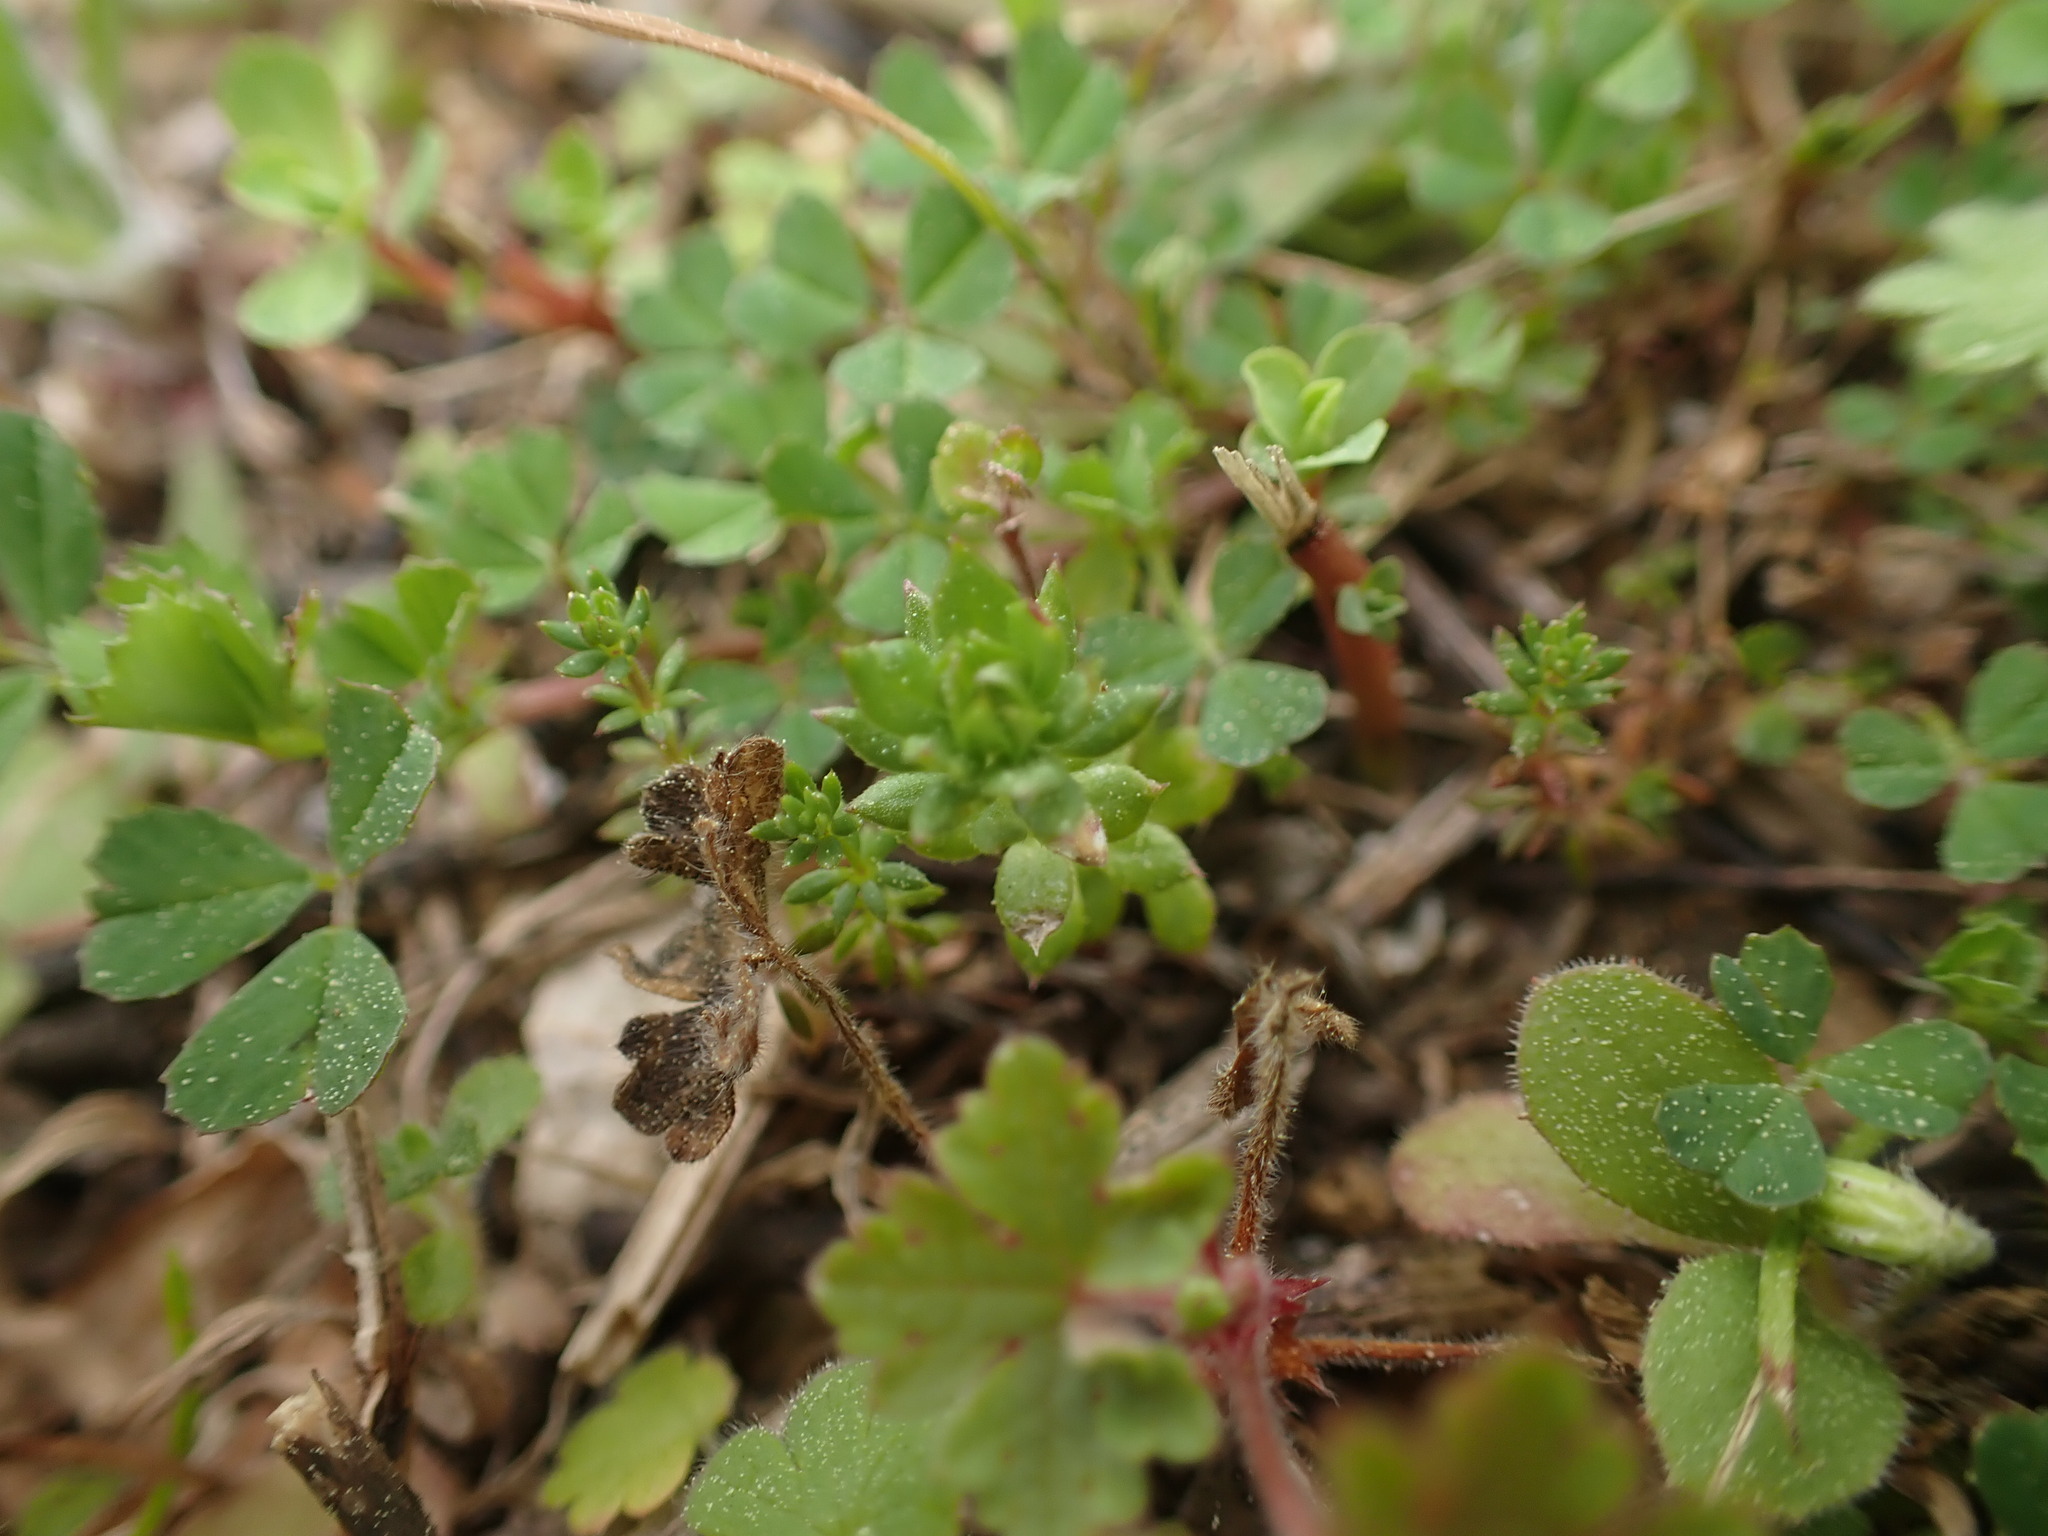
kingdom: Plantae
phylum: Tracheophyta
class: Magnoliopsida
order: Gentianales
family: Rubiaceae
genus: Sherardia
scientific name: Sherardia arvensis
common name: Field madder
